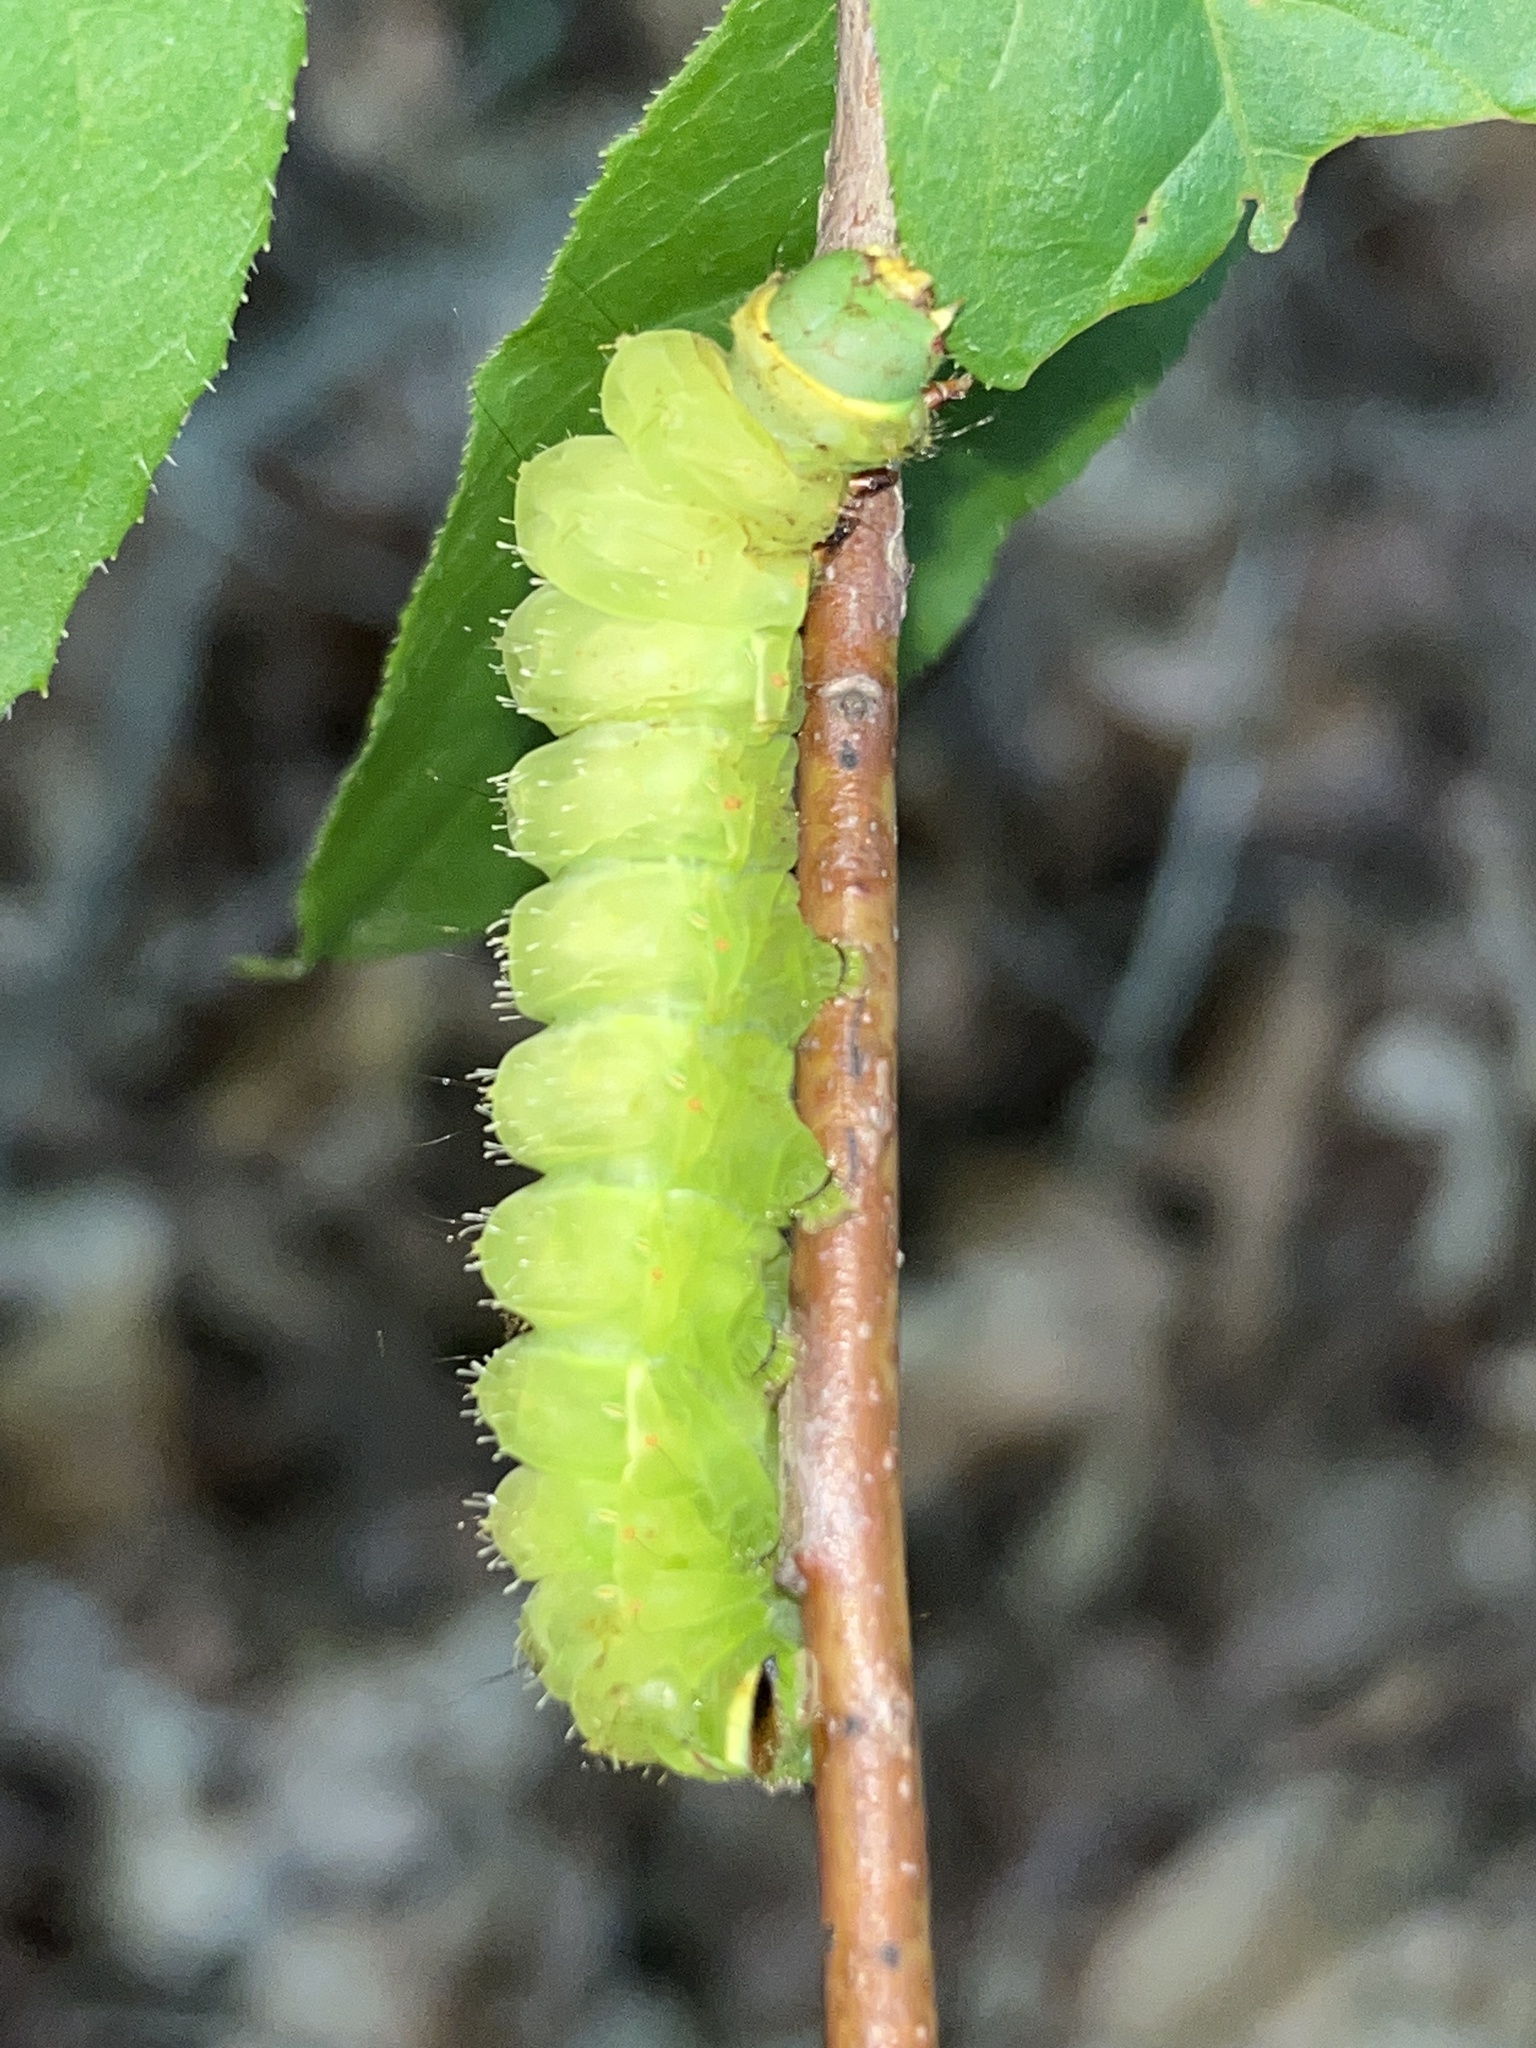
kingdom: Animalia
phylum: Arthropoda
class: Insecta
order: Lepidoptera
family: Saturniidae
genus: Actias
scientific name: Actias luna
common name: Luna moth
